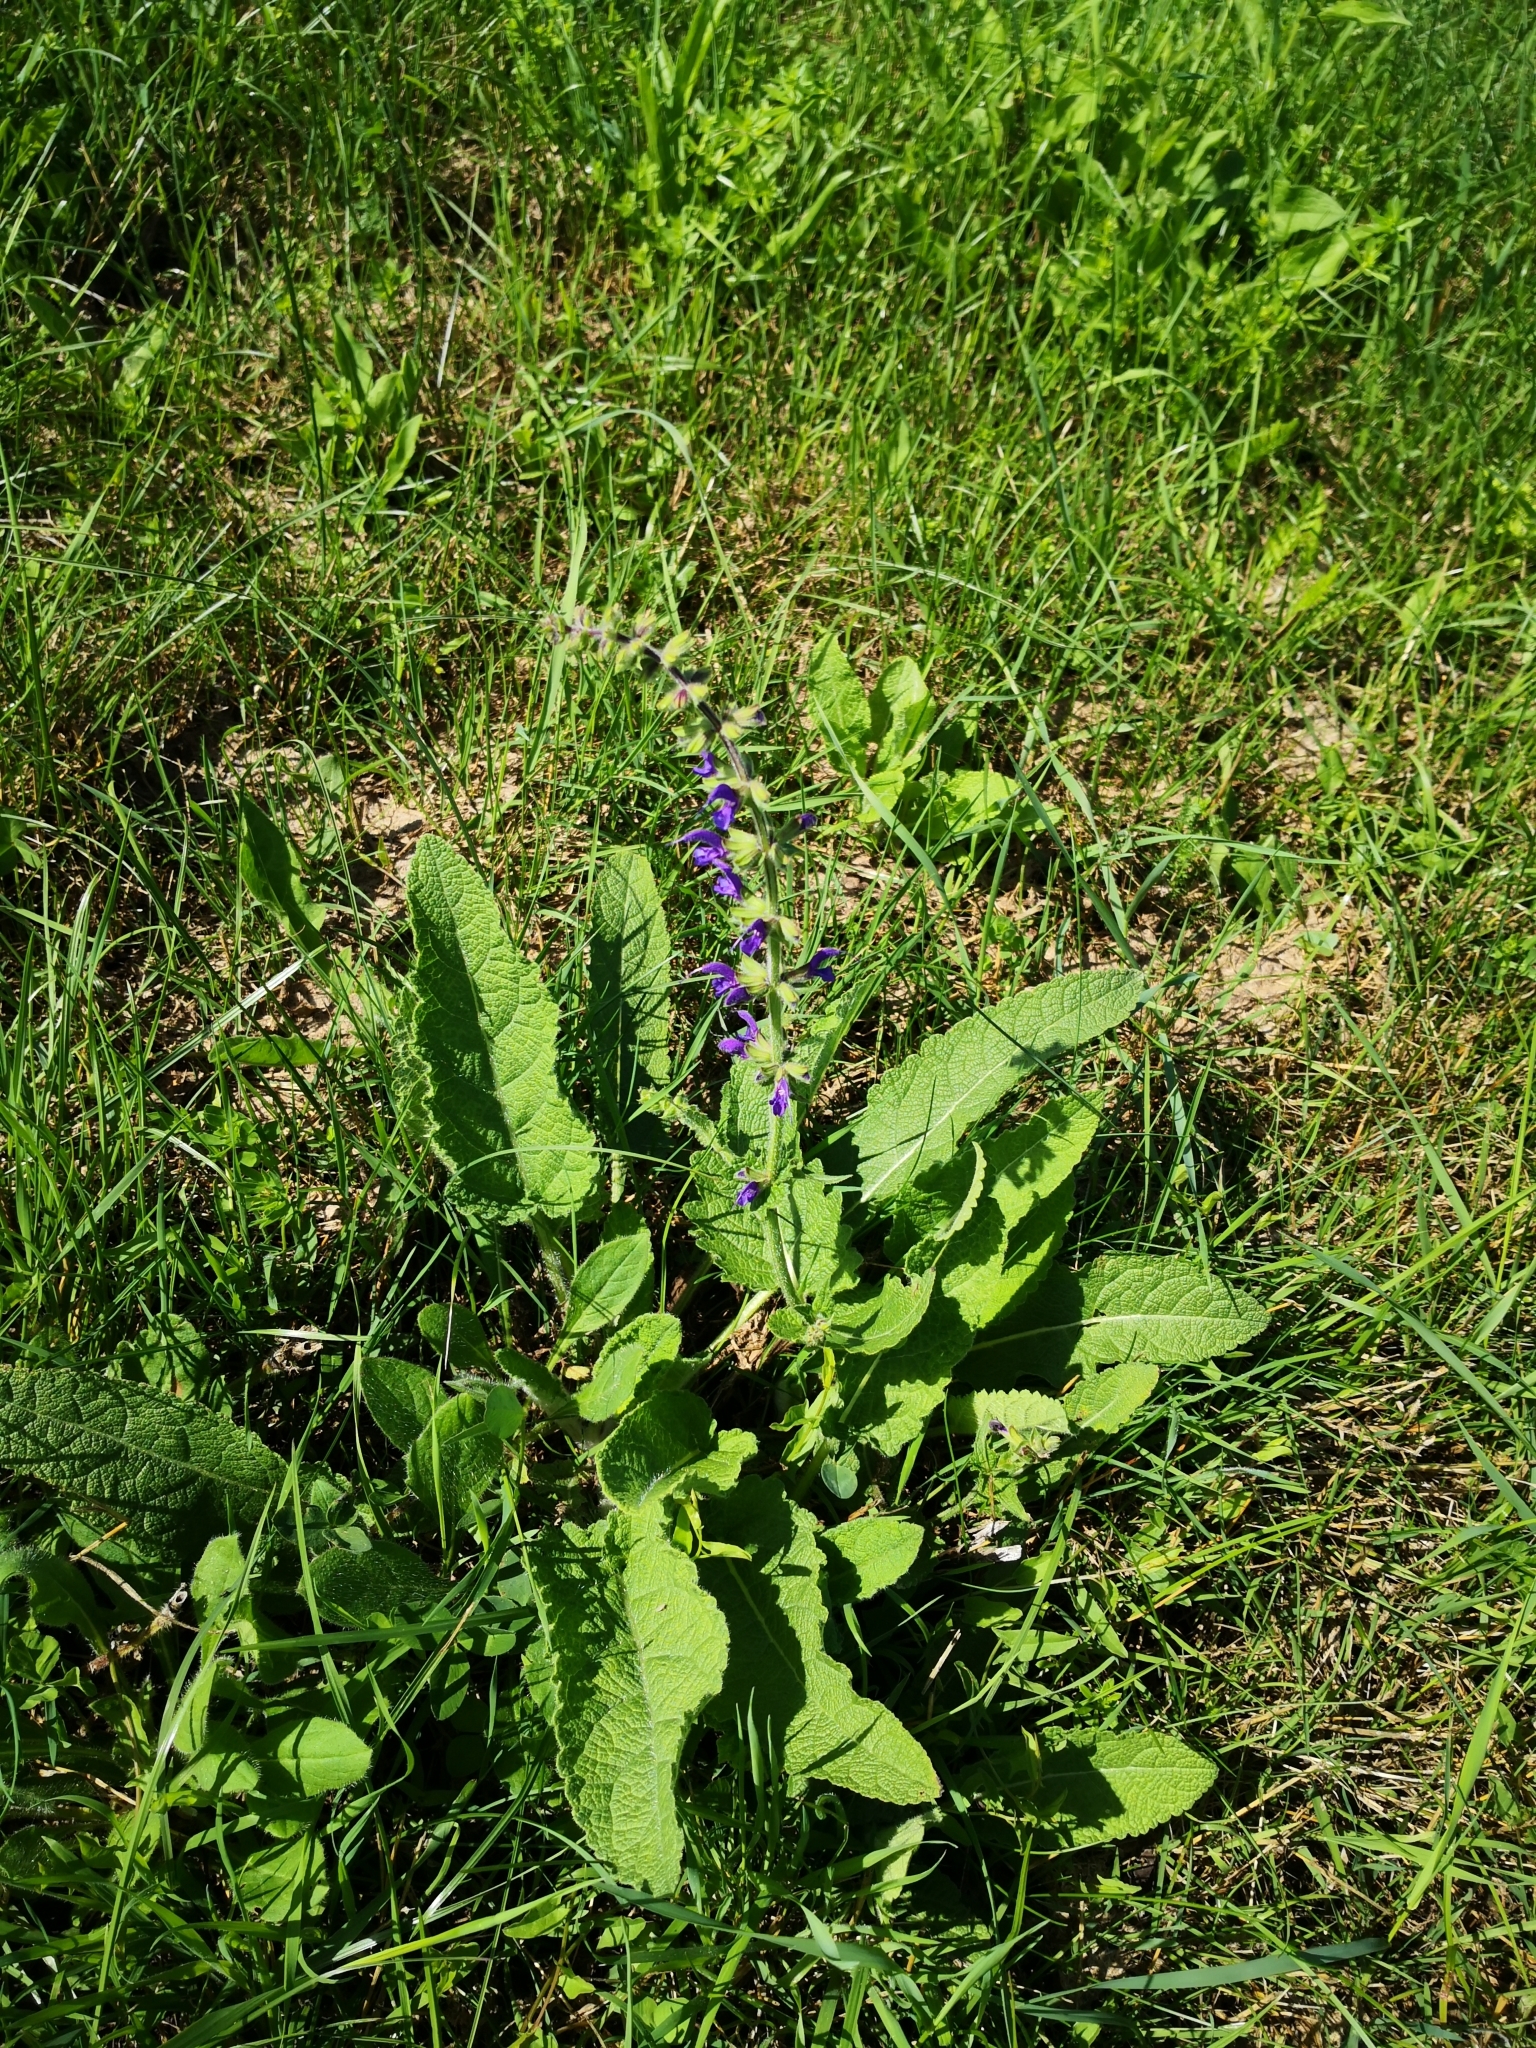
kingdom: Plantae
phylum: Tracheophyta
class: Magnoliopsida
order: Lamiales
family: Lamiaceae
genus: Salvia
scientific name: Salvia pratensis
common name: Meadow sage
